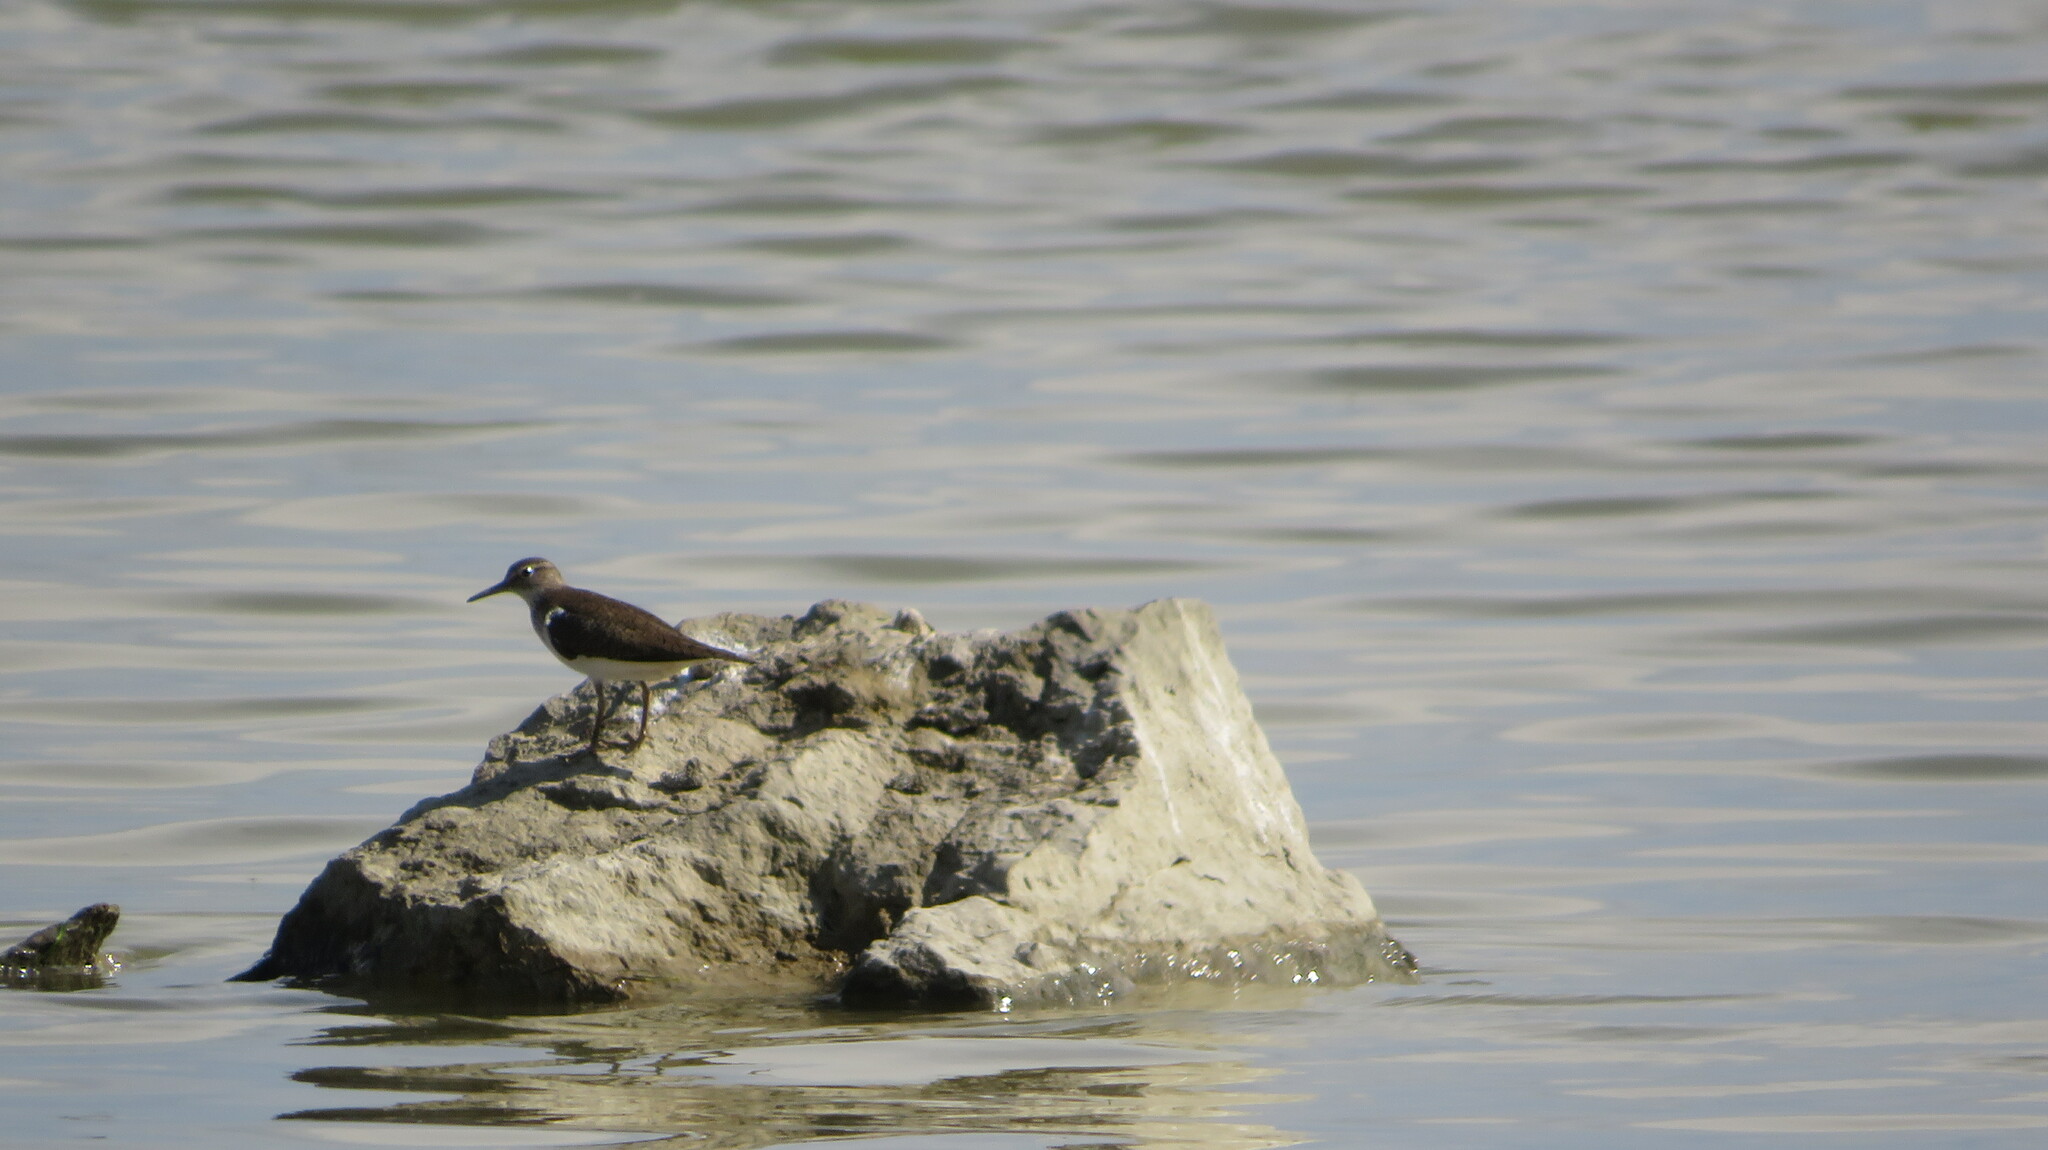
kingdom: Animalia
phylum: Chordata
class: Aves
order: Charadriiformes
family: Scolopacidae
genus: Actitis
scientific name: Actitis hypoleucos
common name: Common sandpiper
